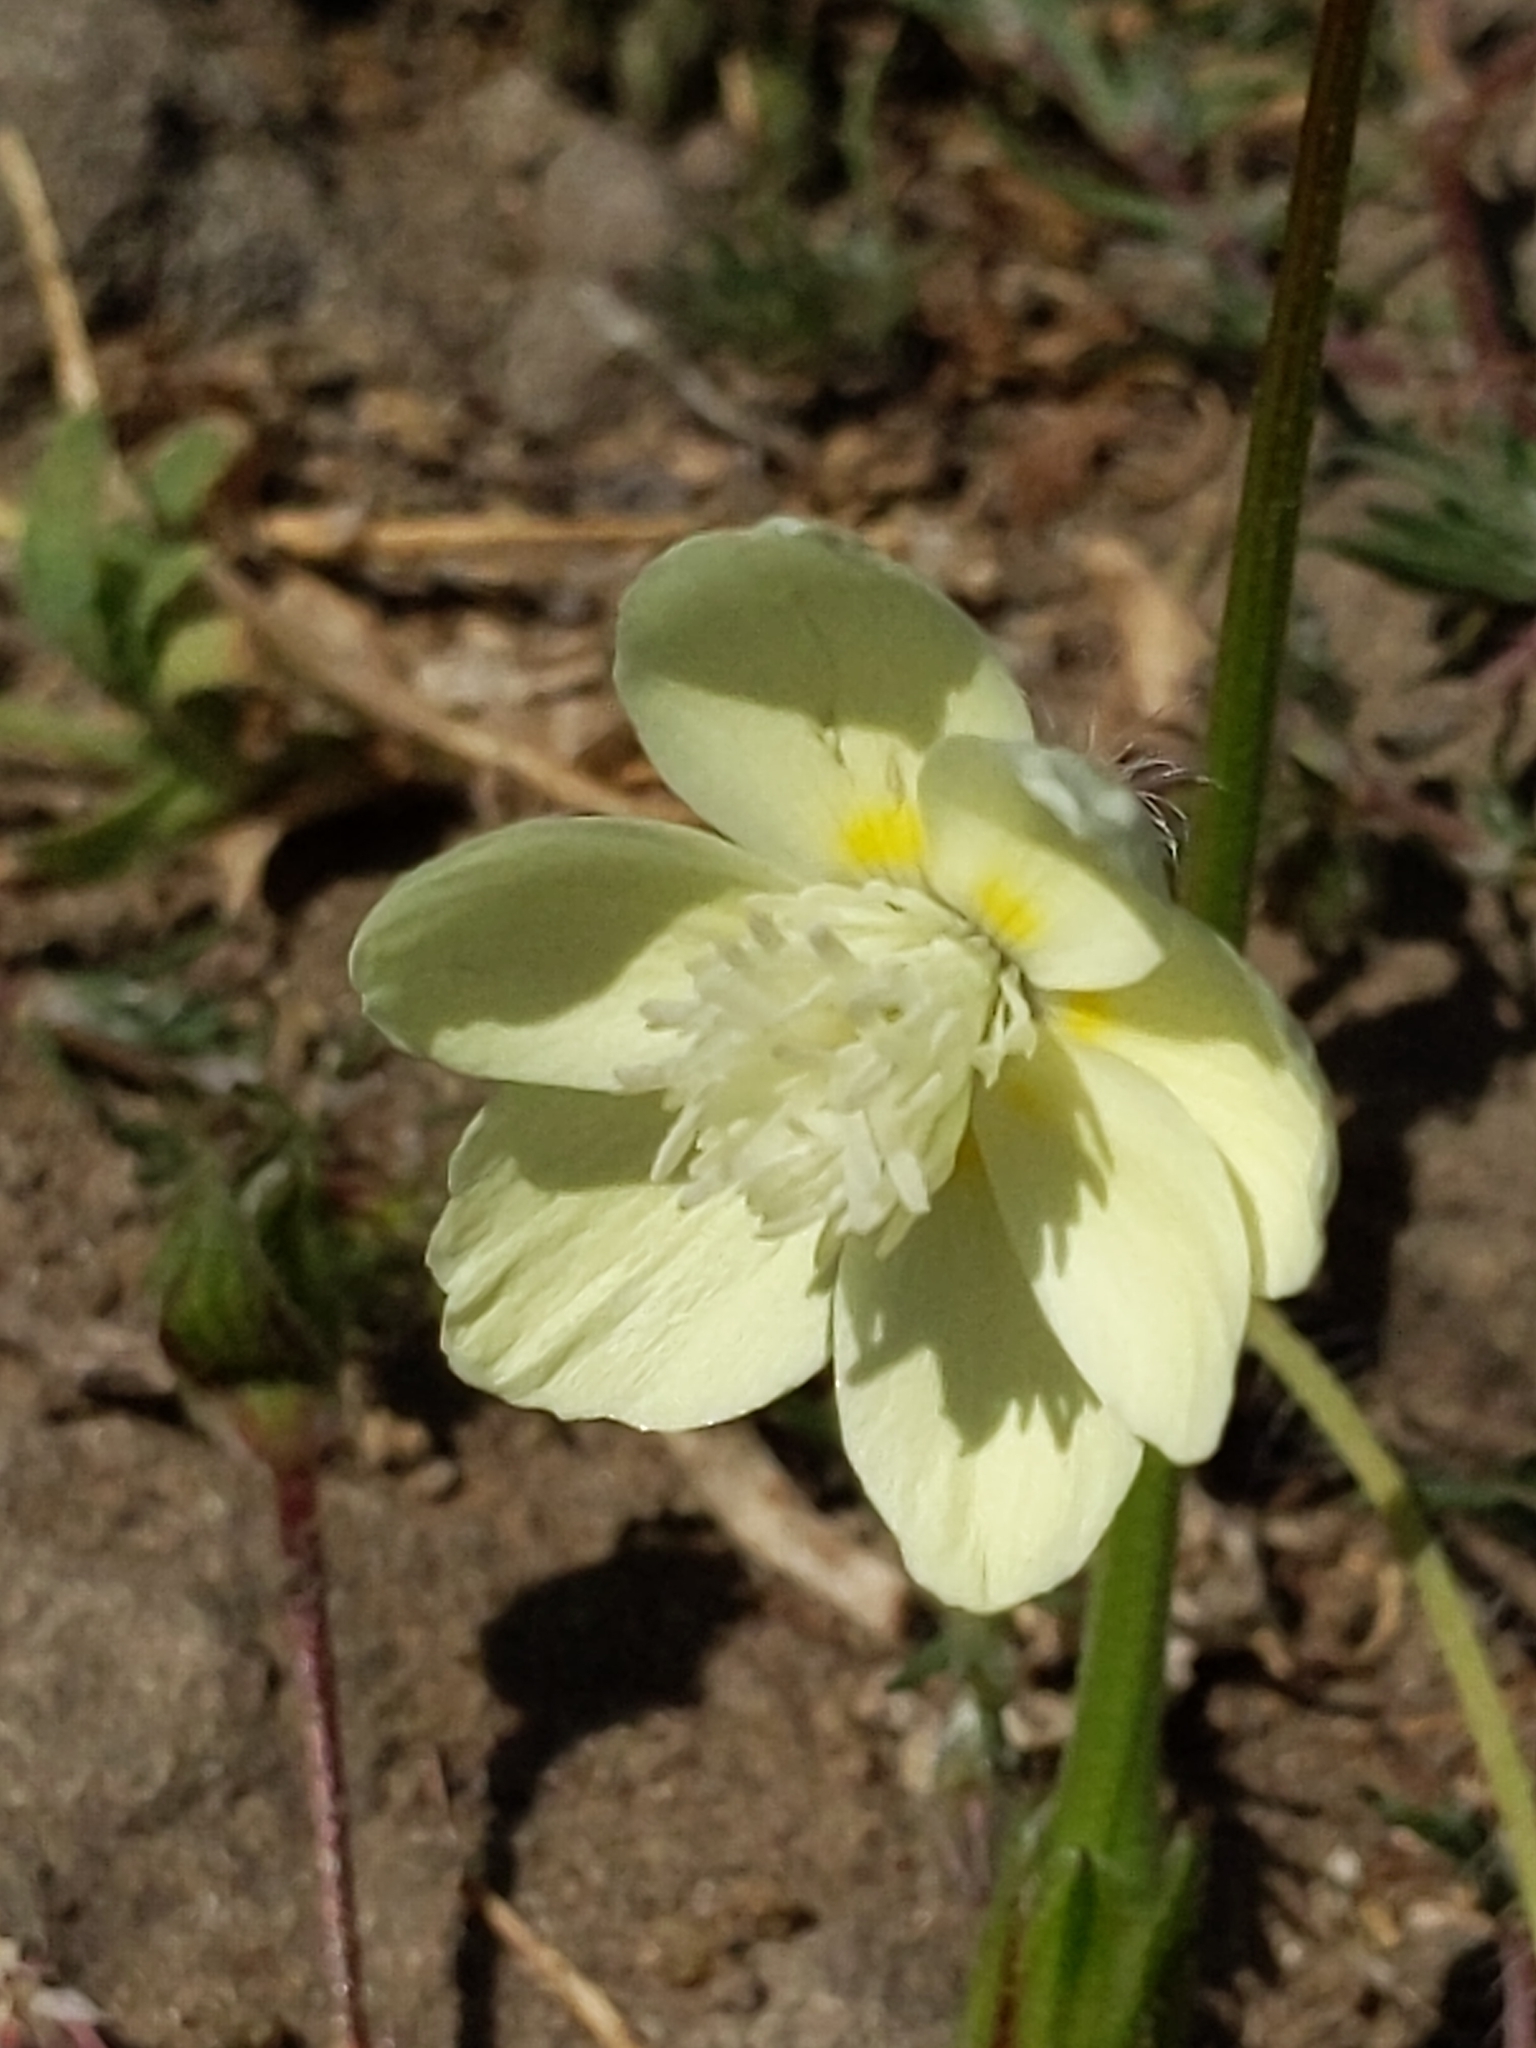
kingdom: Plantae
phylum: Tracheophyta
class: Magnoliopsida
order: Ranunculales
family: Papaveraceae
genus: Platystemon
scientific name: Platystemon californicus
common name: Cream-cups
